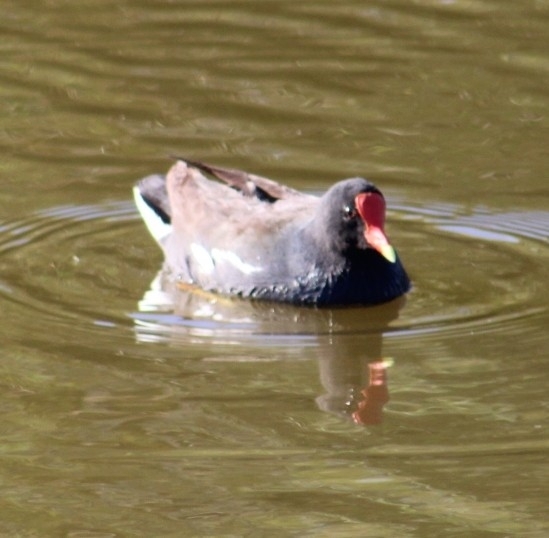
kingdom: Animalia
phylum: Chordata
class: Aves
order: Gruiformes
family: Rallidae
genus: Gallinula
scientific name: Gallinula chloropus
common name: Common moorhen
